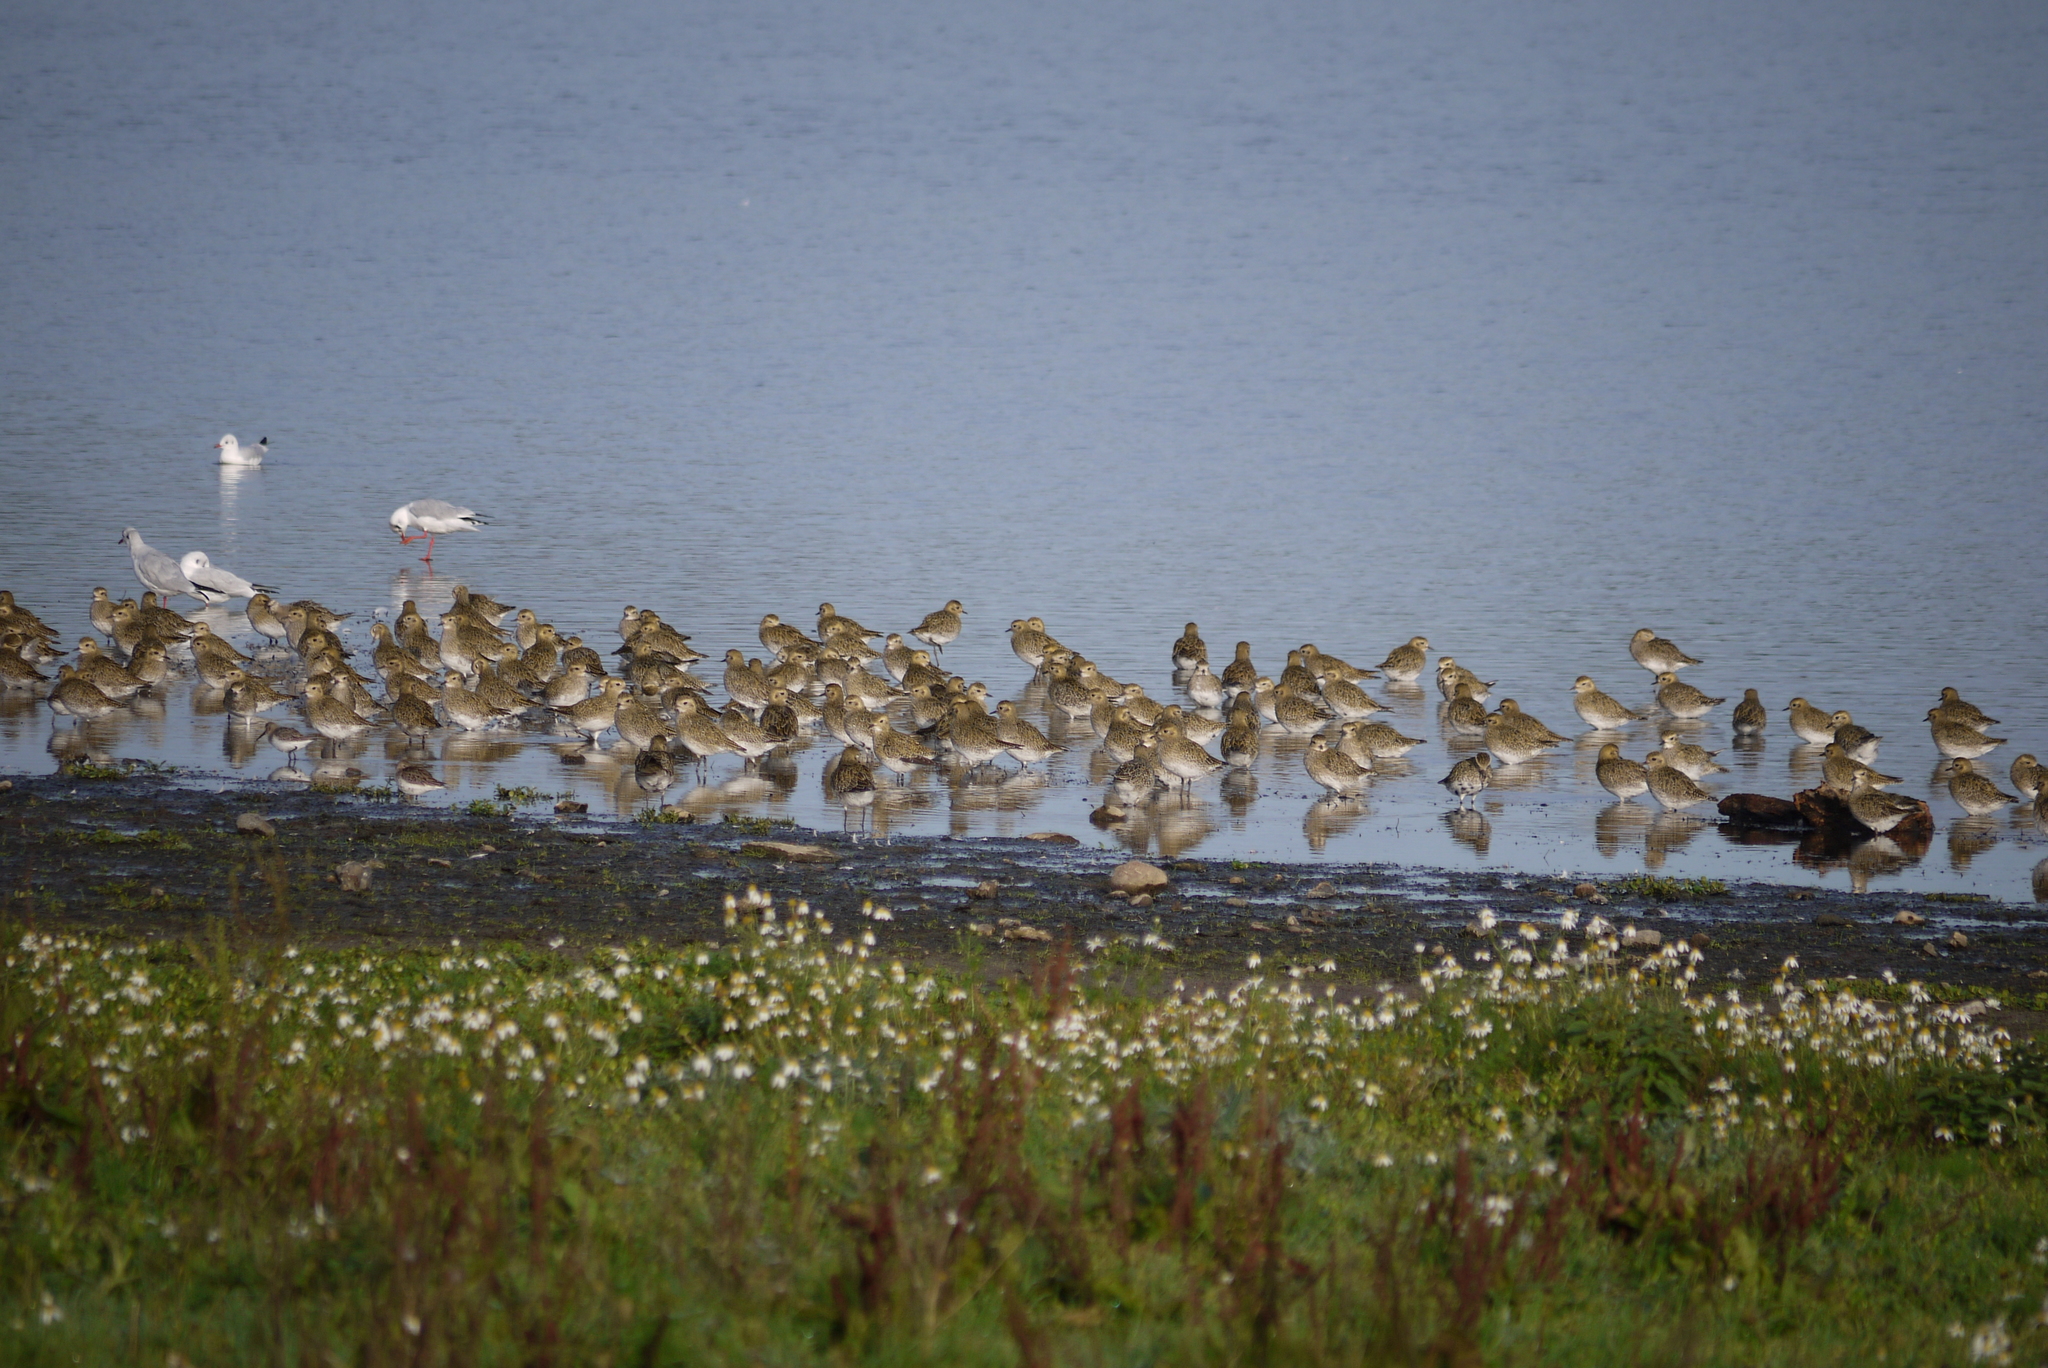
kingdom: Animalia
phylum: Chordata
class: Aves
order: Charadriiformes
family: Charadriidae
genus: Pluvialis
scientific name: Pluvialis apricaria
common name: European golden plover
